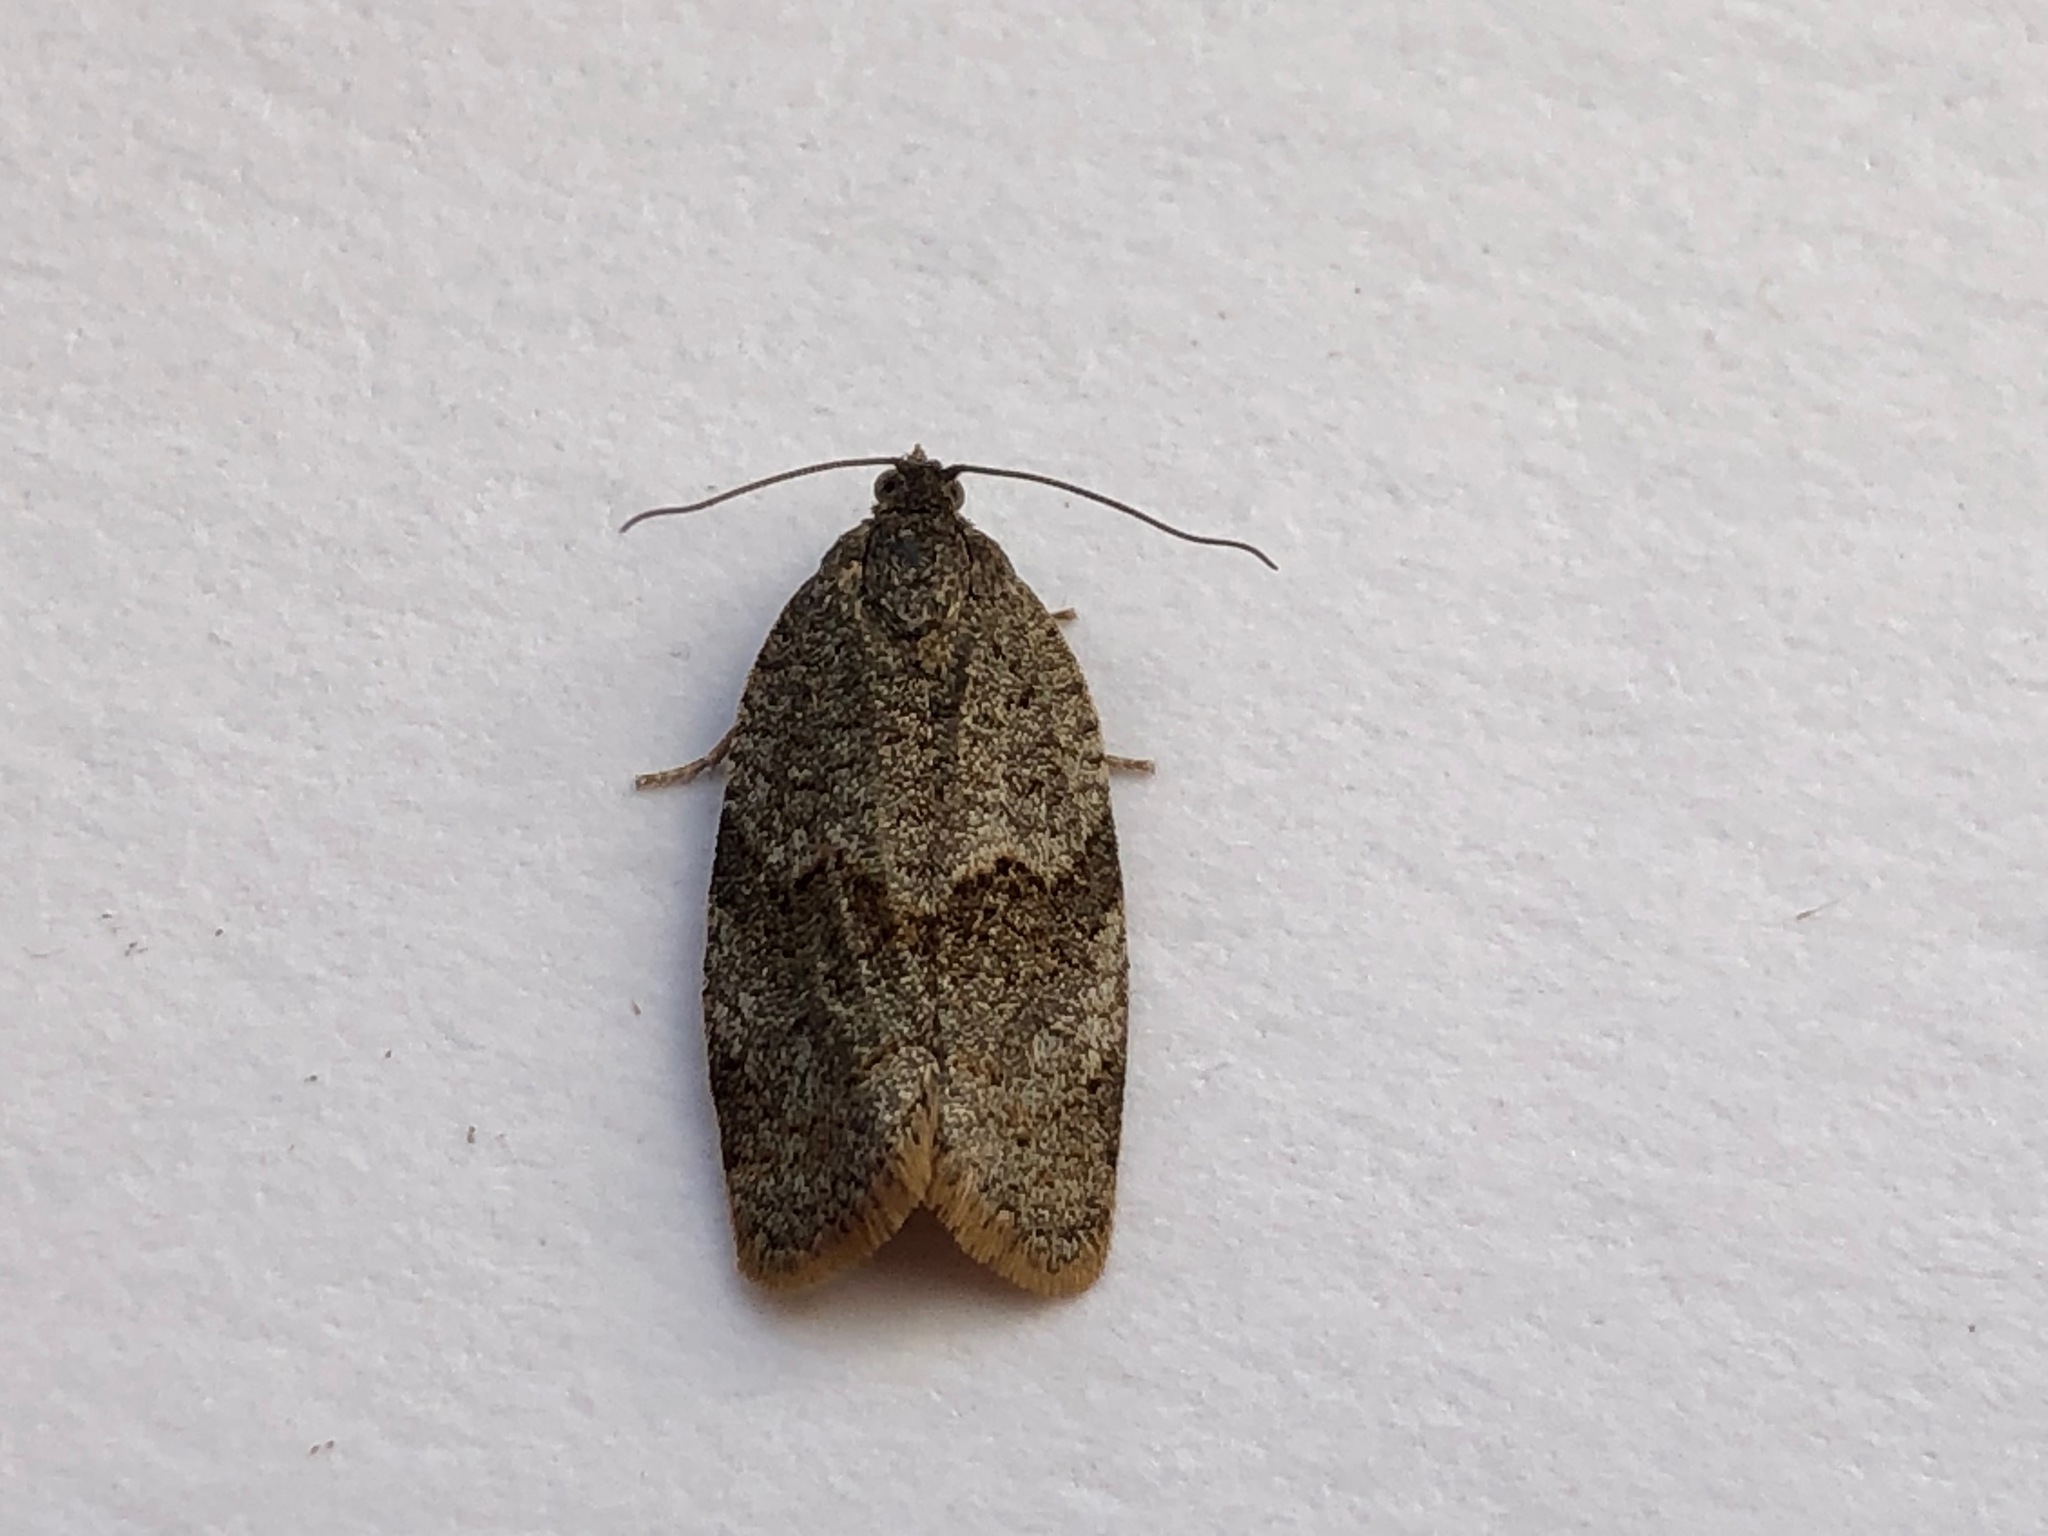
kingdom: Animalia
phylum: Arthropoda
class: Insecta
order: Lepidoptera
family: Tortricidae
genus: Syndemis
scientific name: Syndemis musculana
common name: Dark-barred twist
